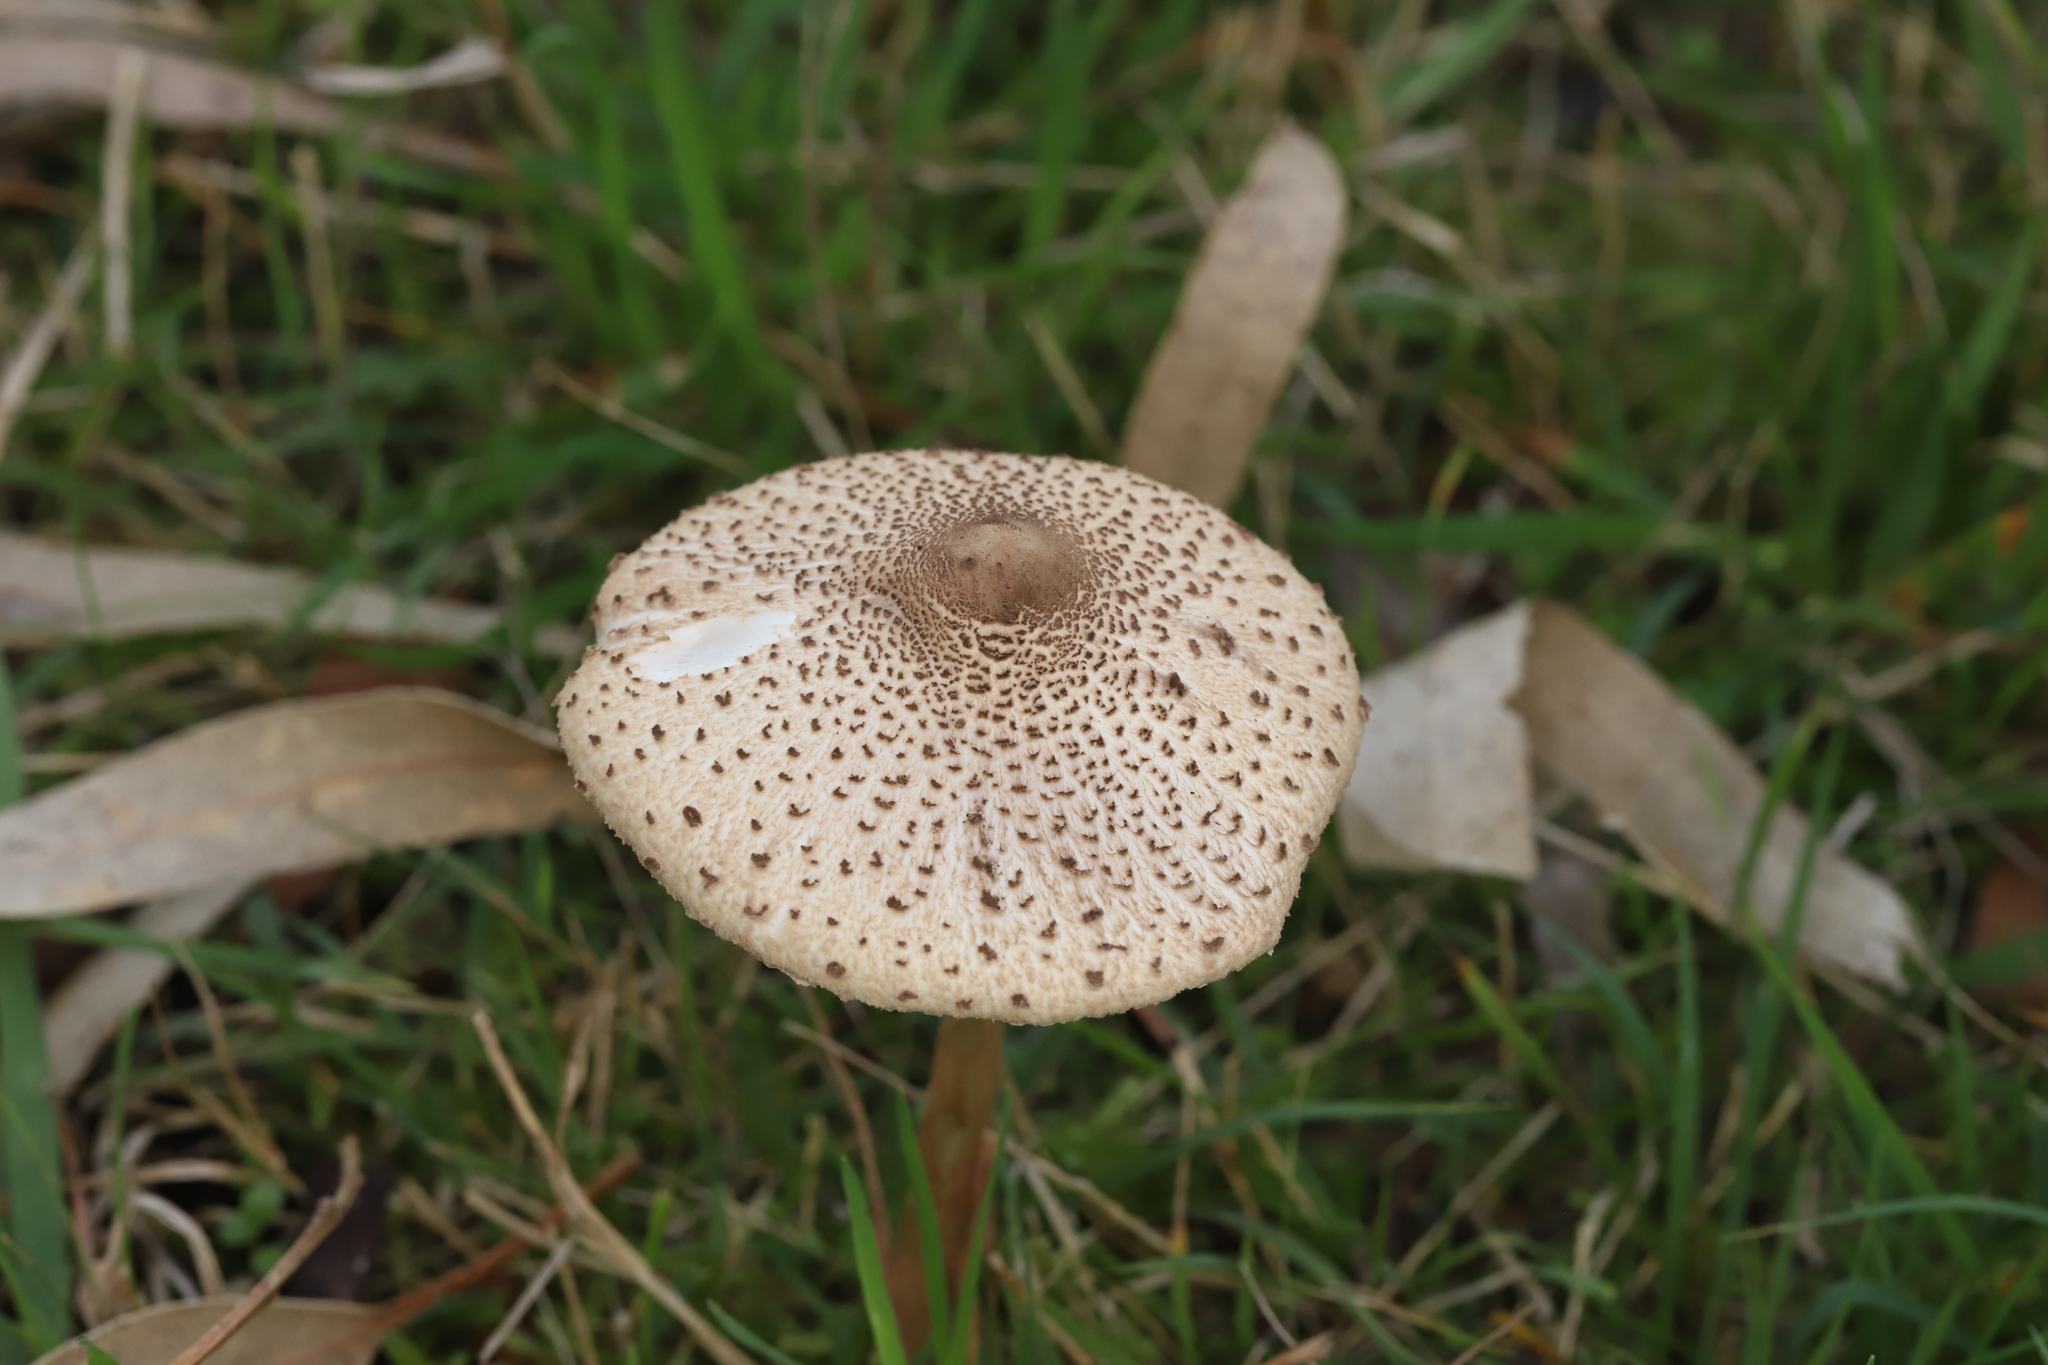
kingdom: Fungi
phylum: Basidiomycota
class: Agaricomycetes
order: Agaricales
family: Agaricaceae
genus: Macrolepiota
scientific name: Macrolepiota clelandii
